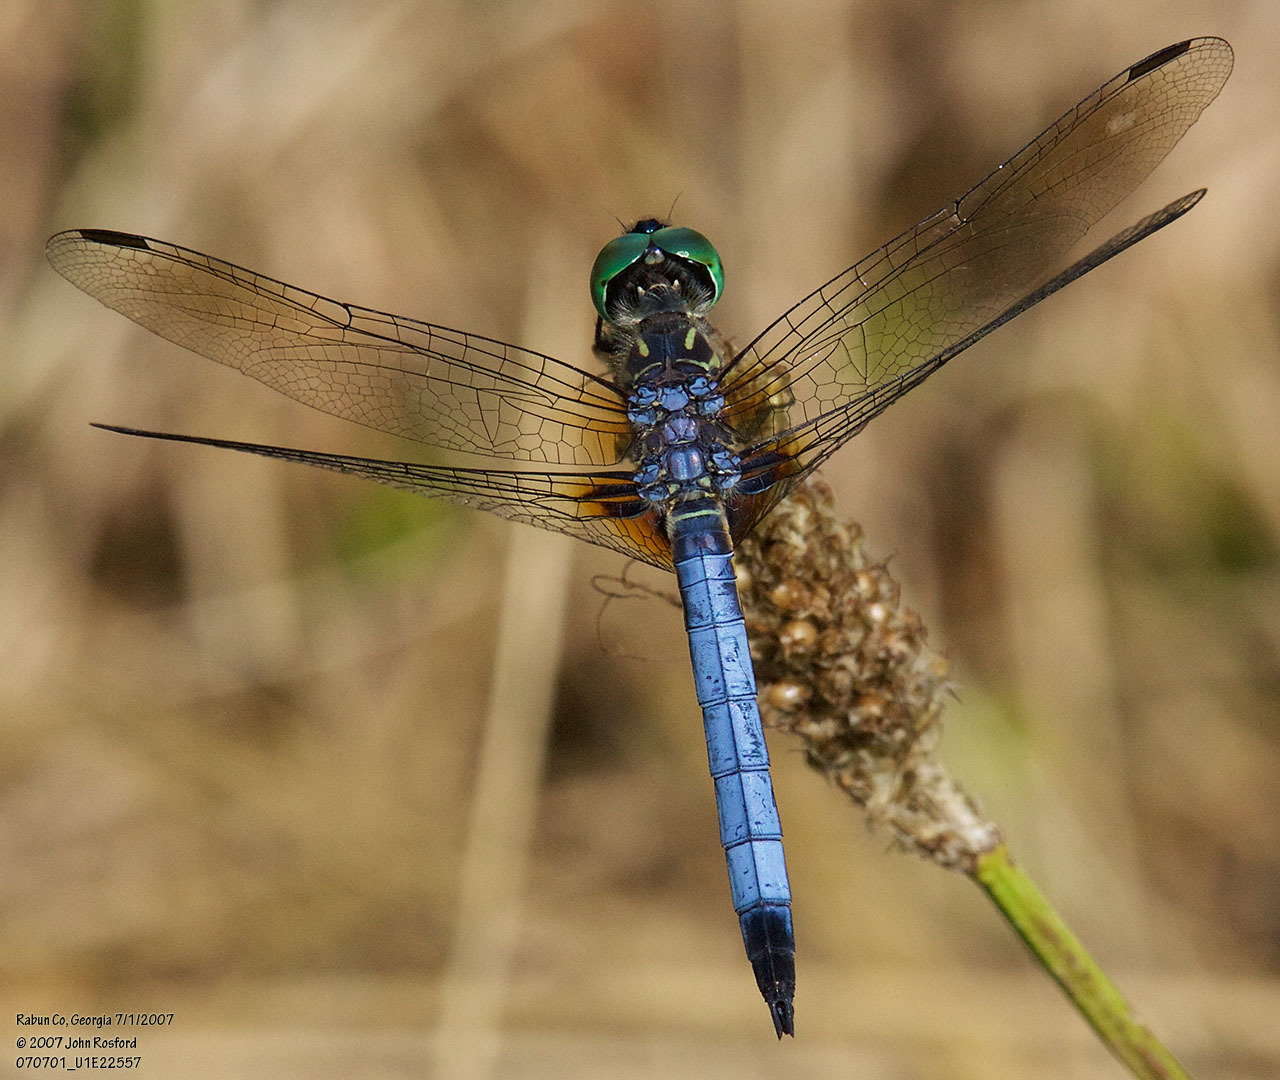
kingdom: Animalia
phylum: Arthropoda
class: Insecta
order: Odonata
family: Libellulidae
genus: Pachydiplax
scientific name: Pachydiplax longipennis
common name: Blue dasher
